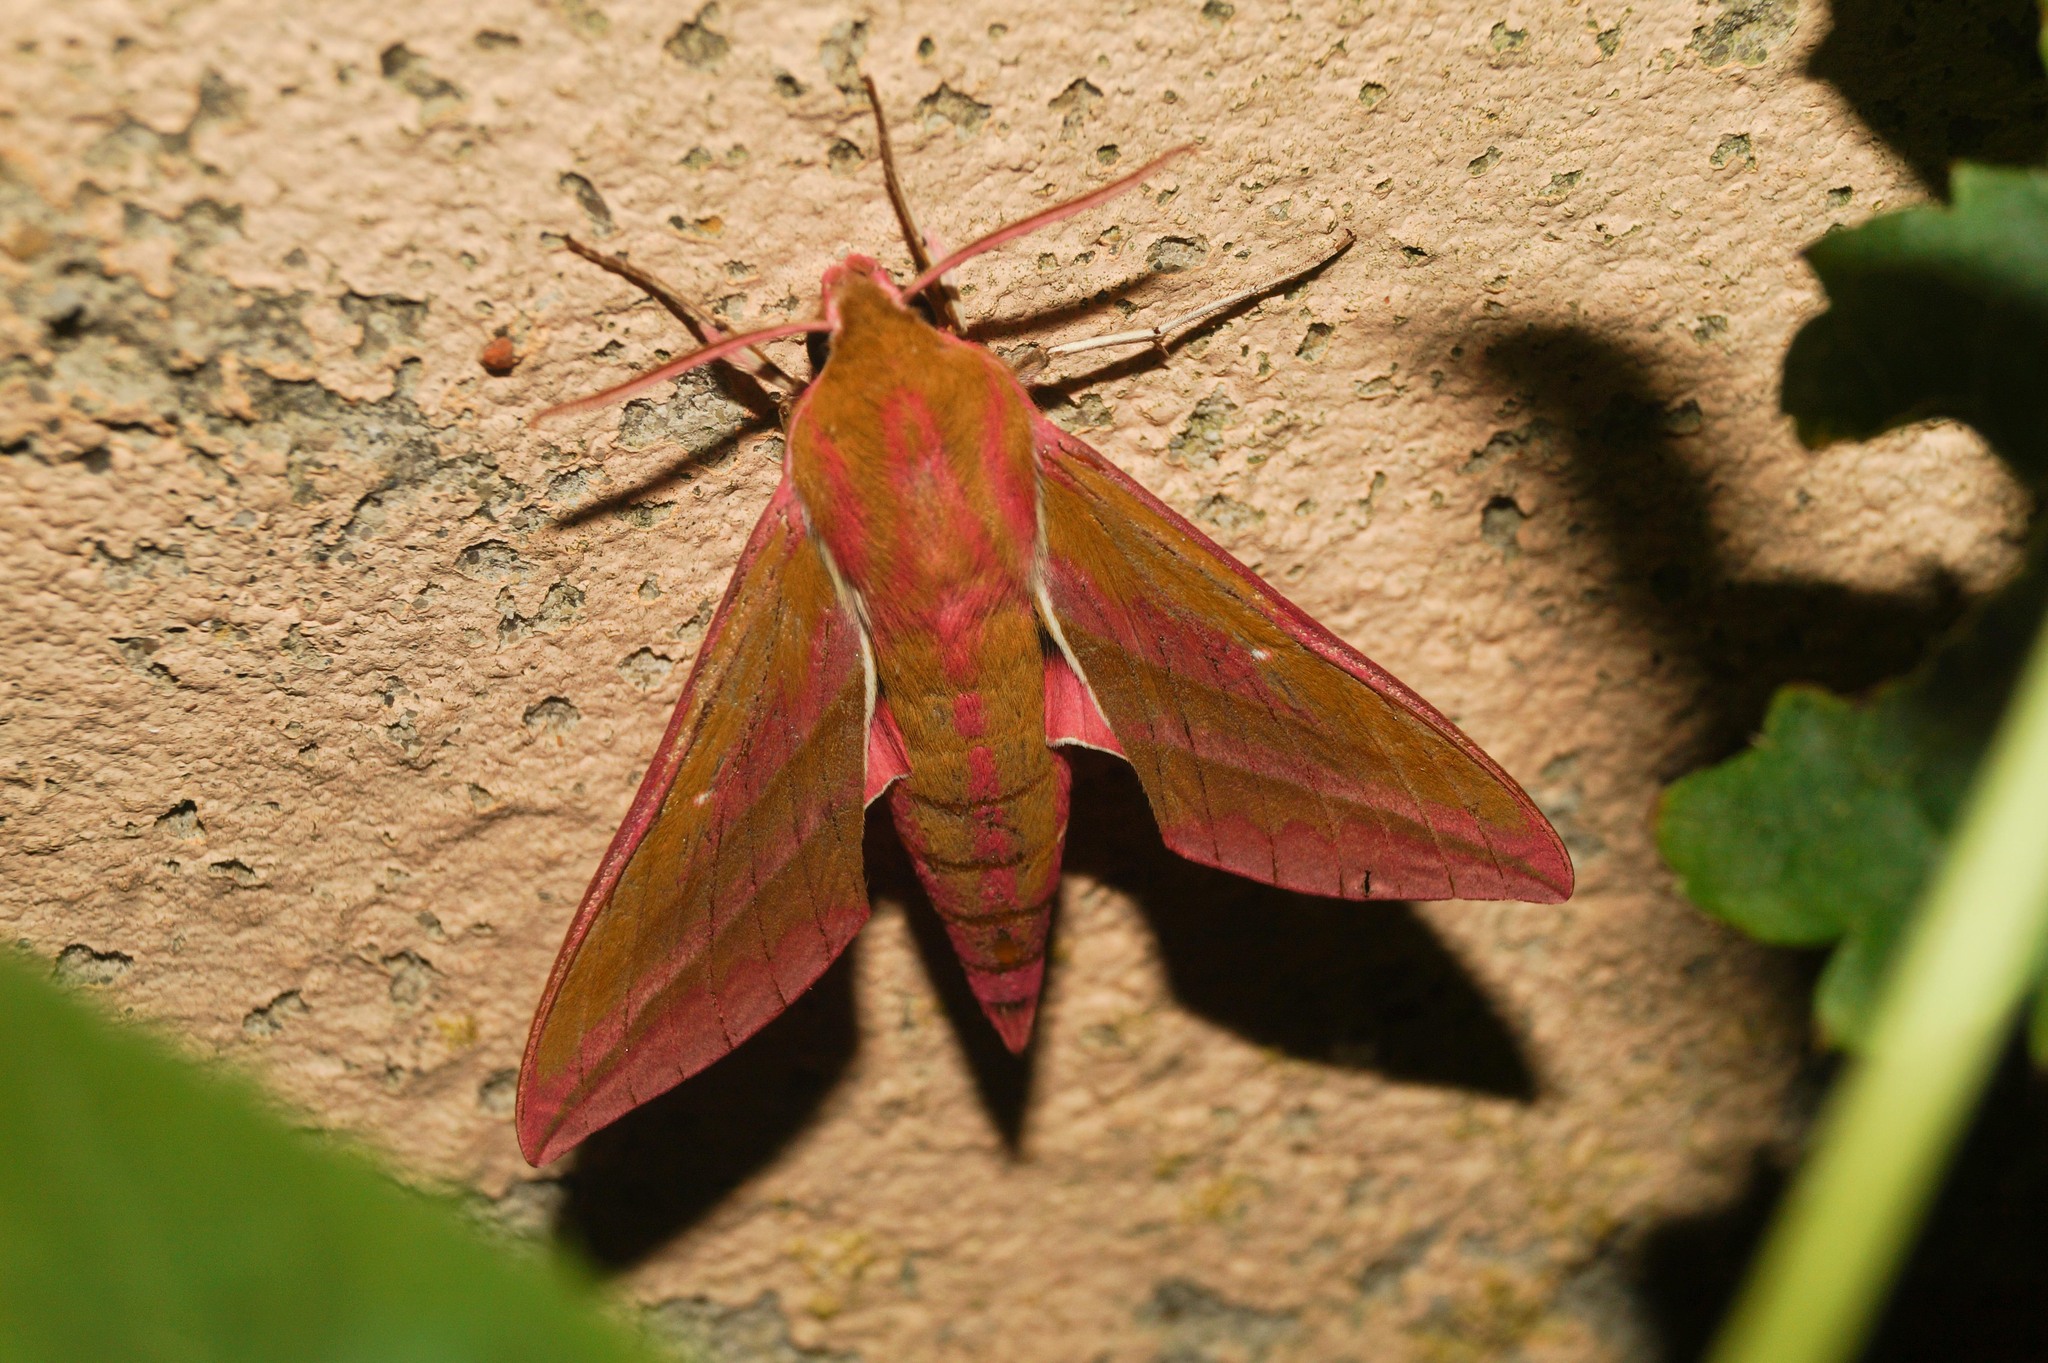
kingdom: Animalia
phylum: Arthropoda
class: Insecta
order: Lepidoptera
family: Sphingidae
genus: Deilephila
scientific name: Deilephila elpenor
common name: Elephant hawk-moth
